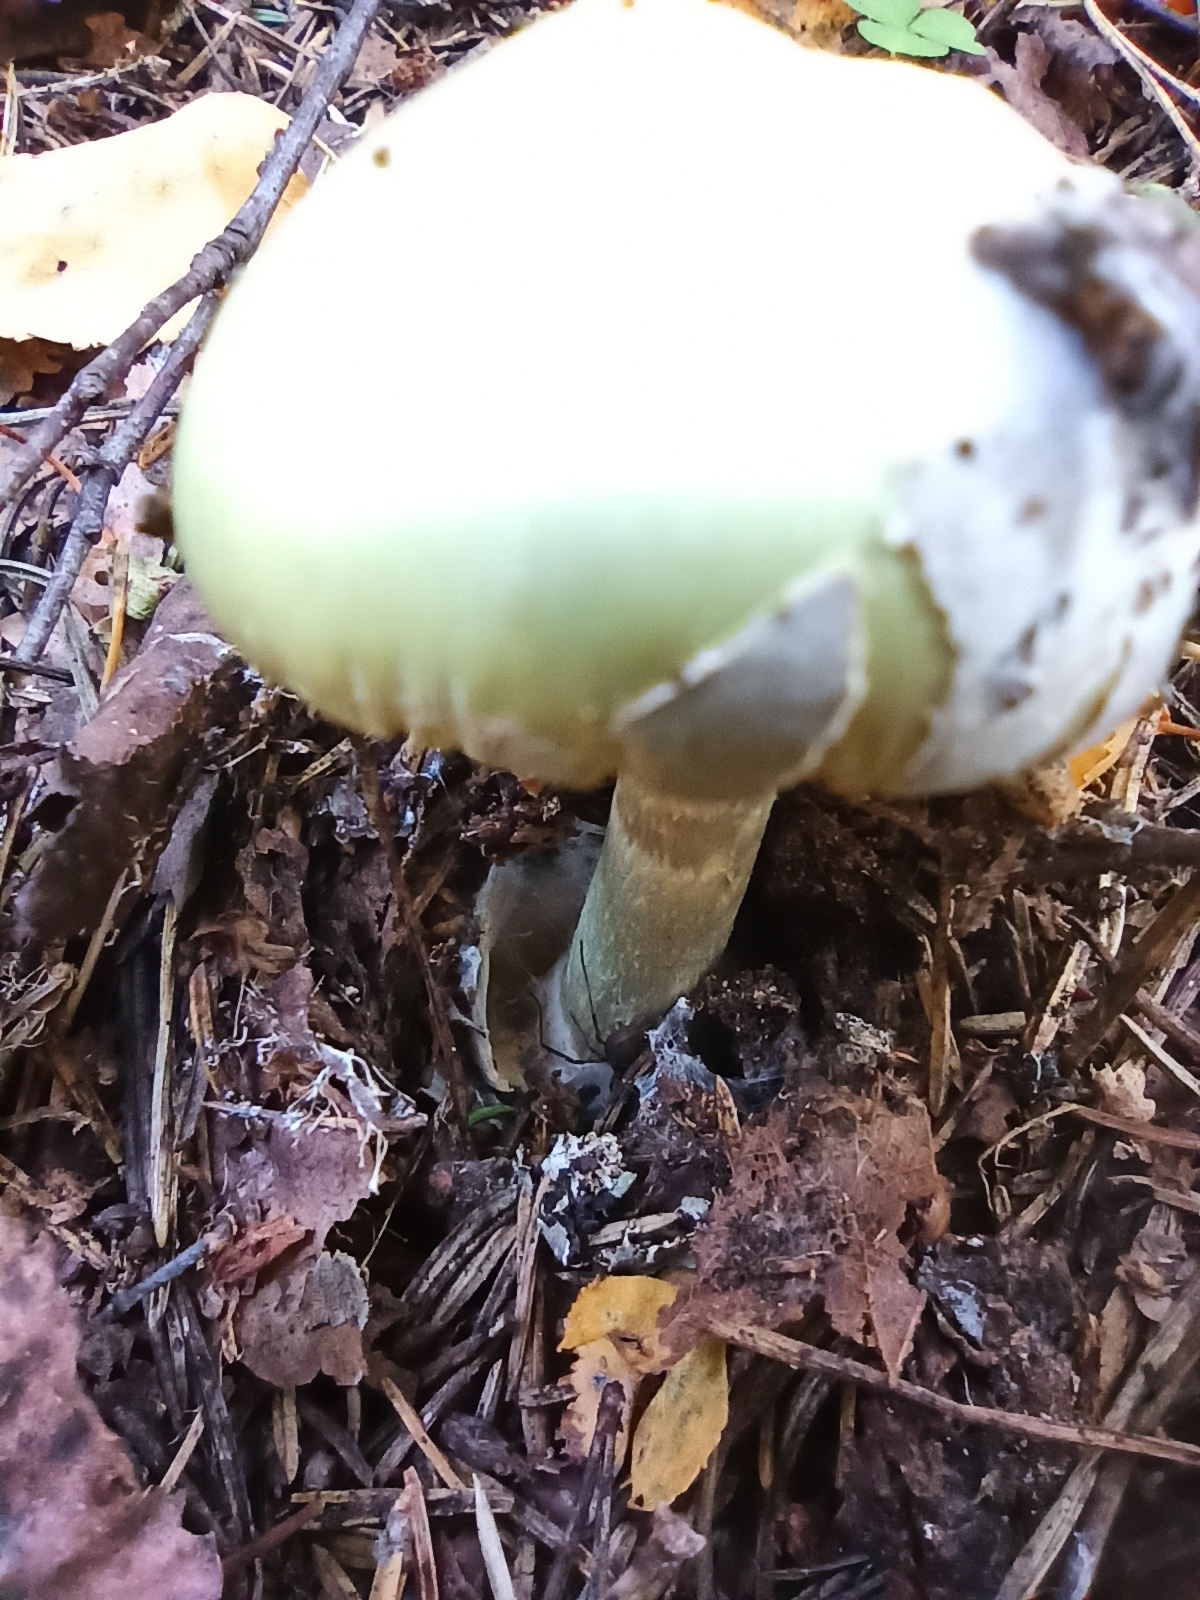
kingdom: Fungi
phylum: Basidiomycota
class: Agaricomycetes
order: Agaricales
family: Amanitaceae
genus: Amanita
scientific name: Amanita phalloides
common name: Death cap
